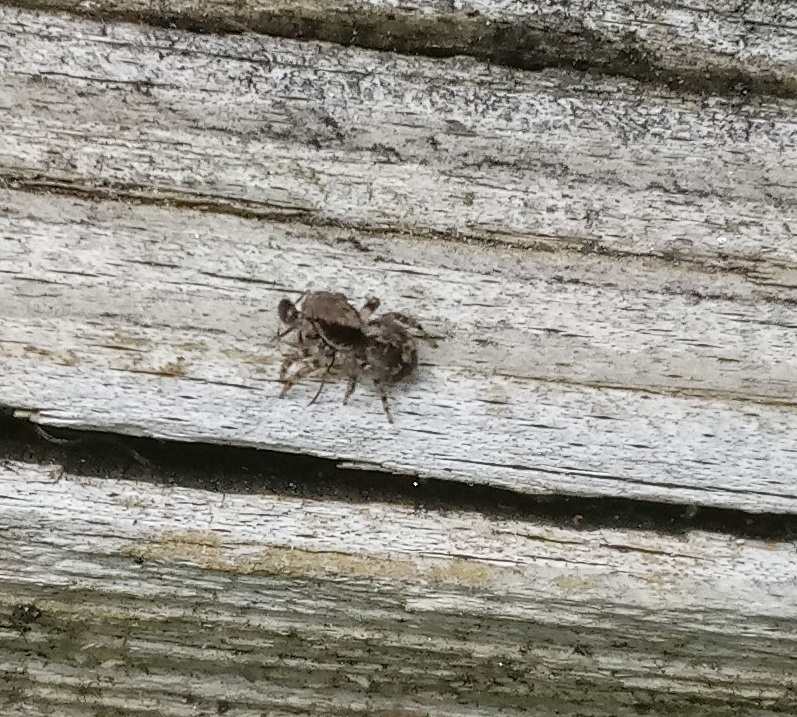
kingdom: Animalia
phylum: Arthropoda
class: Arachnida
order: Araneae
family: Salticidae
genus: Naphrys
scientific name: Naphrys pulex
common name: Flea jumping spider
